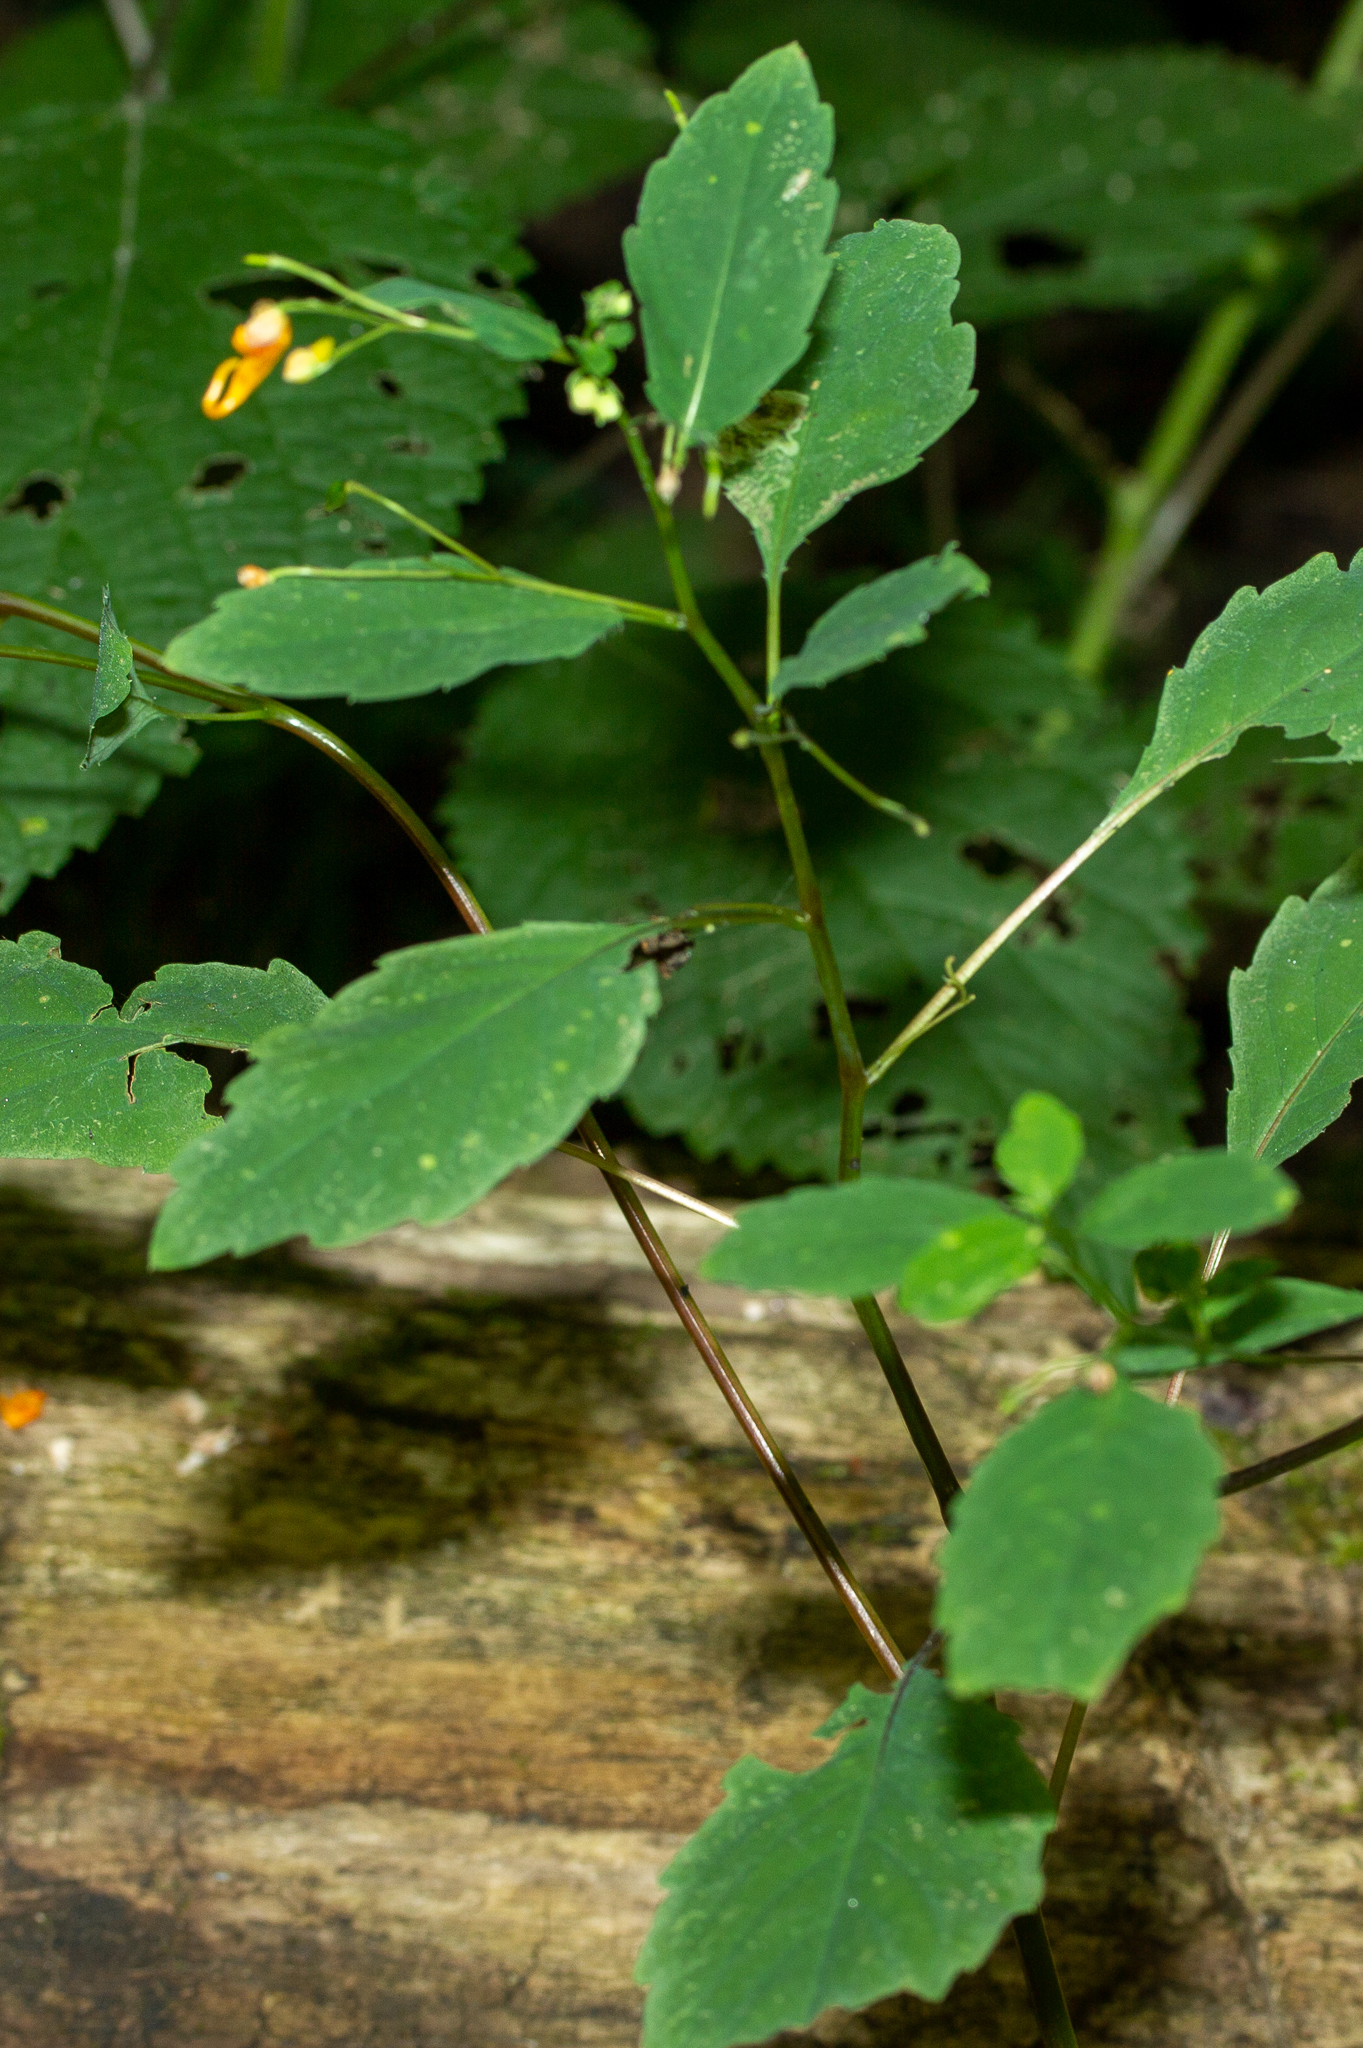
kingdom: Plantae
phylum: Tracheophyta
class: Magnoliopsida
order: Ericales
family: Balsaminaceae
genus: Impatiens
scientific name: Impatiens capensis
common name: Orange balsam
